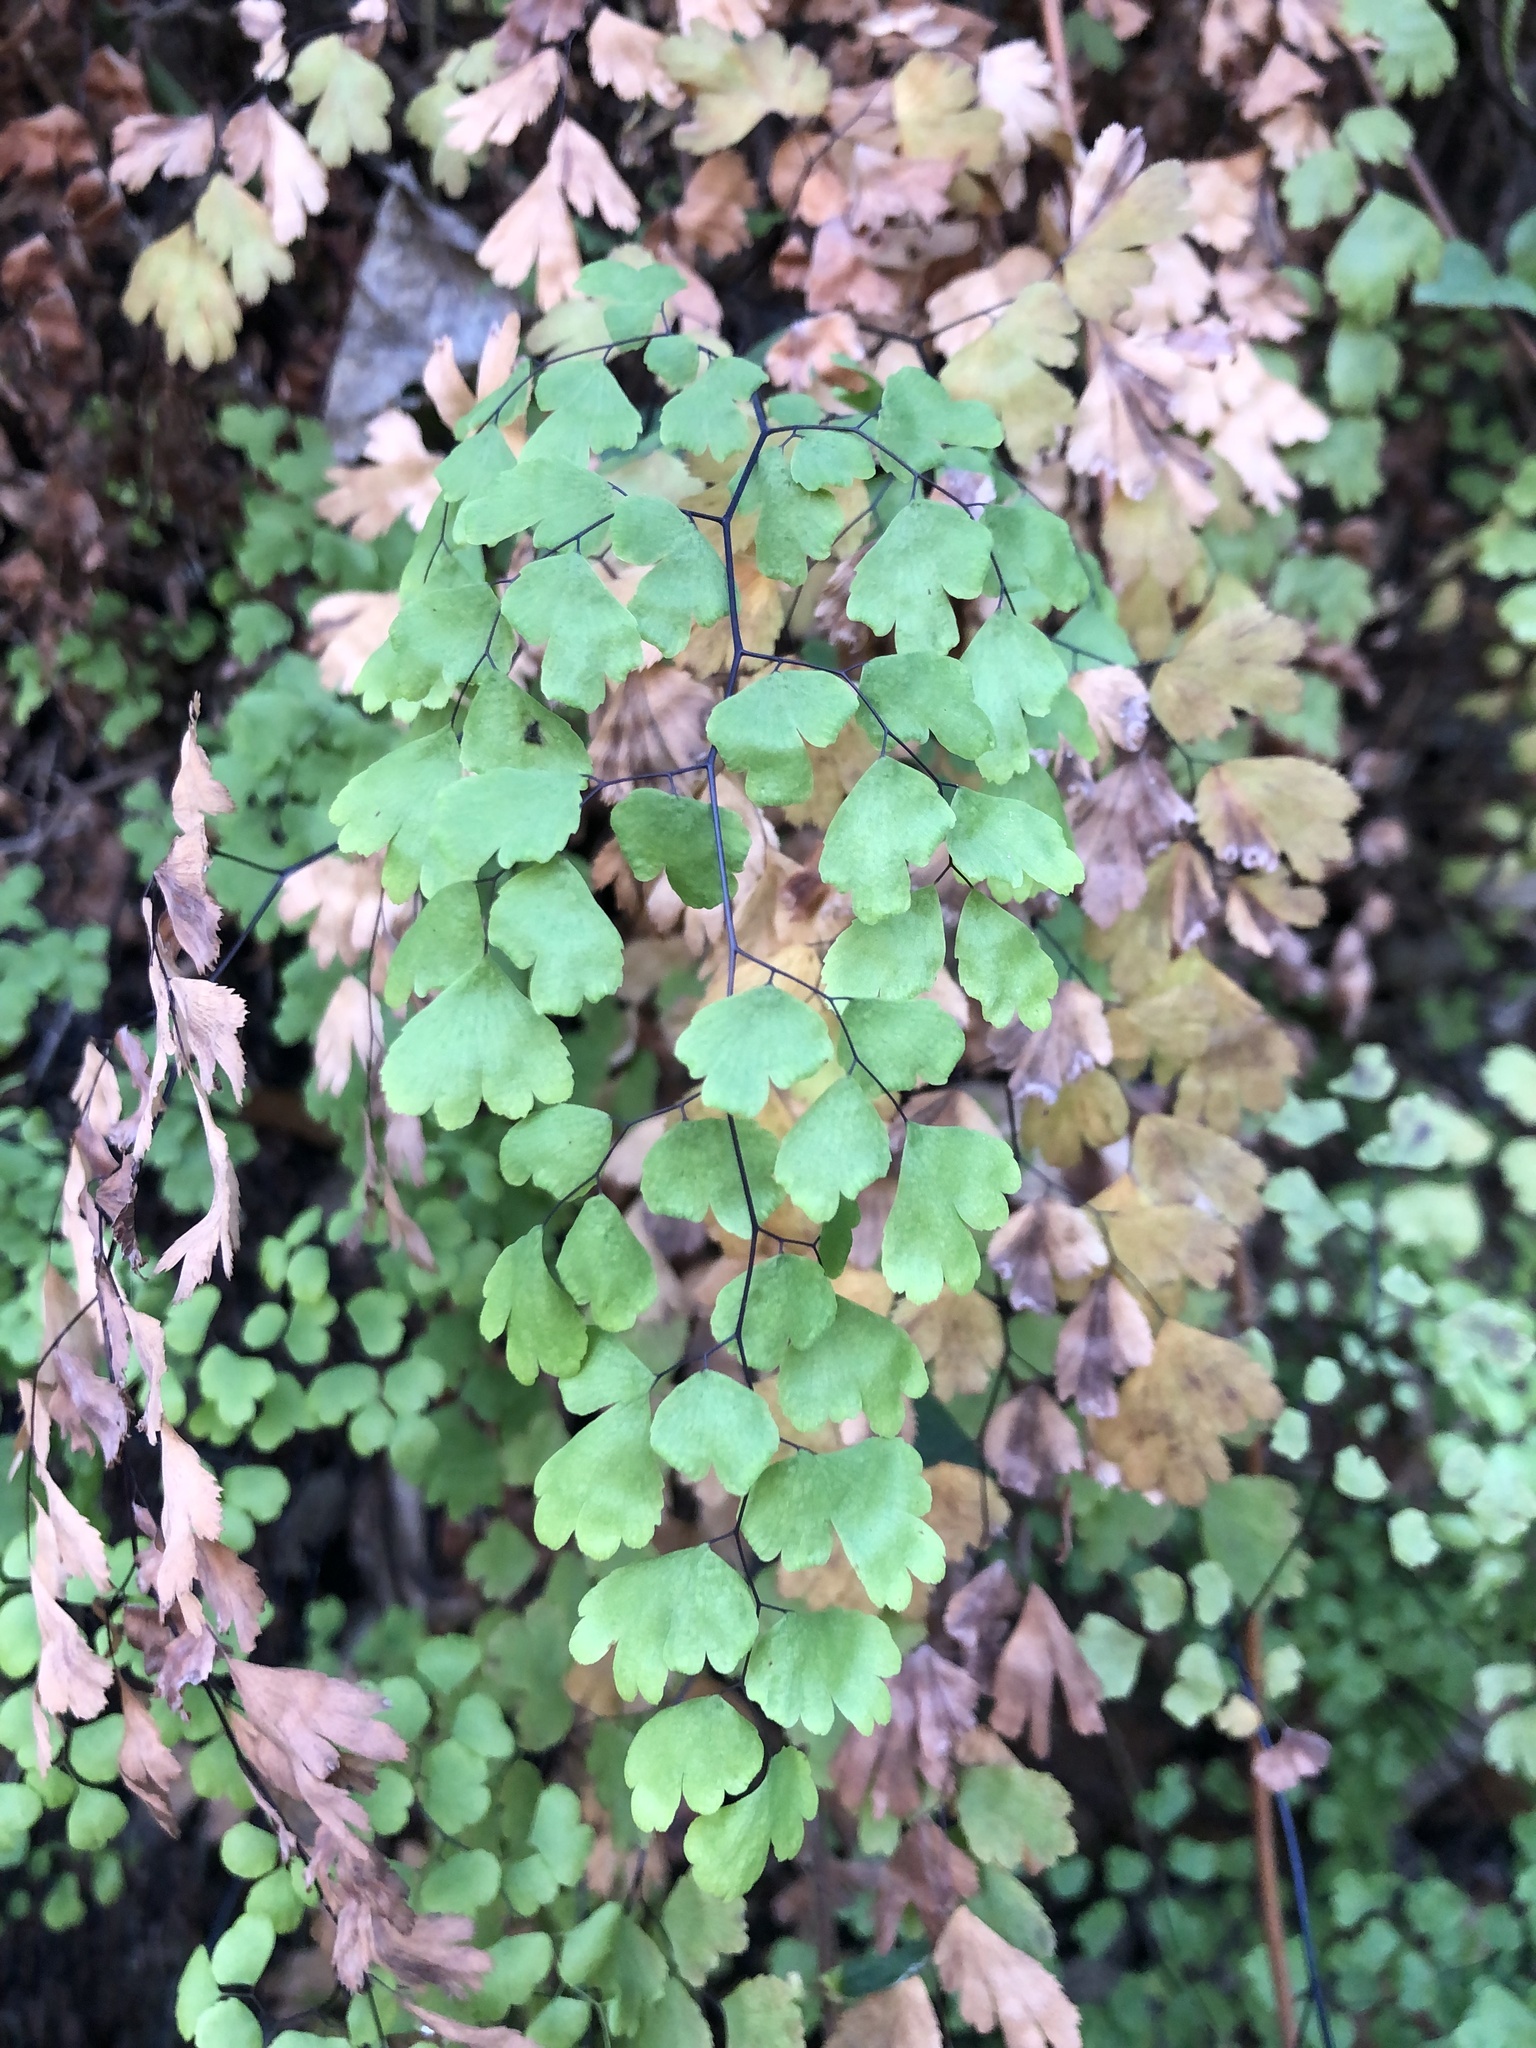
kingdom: Plantae
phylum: Tracheophyta
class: Polypodiopsida
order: Polypodiales
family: Pteridaceae
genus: Adiantum
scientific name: Adiantum capillus-veneris
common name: Maidenhair fern
